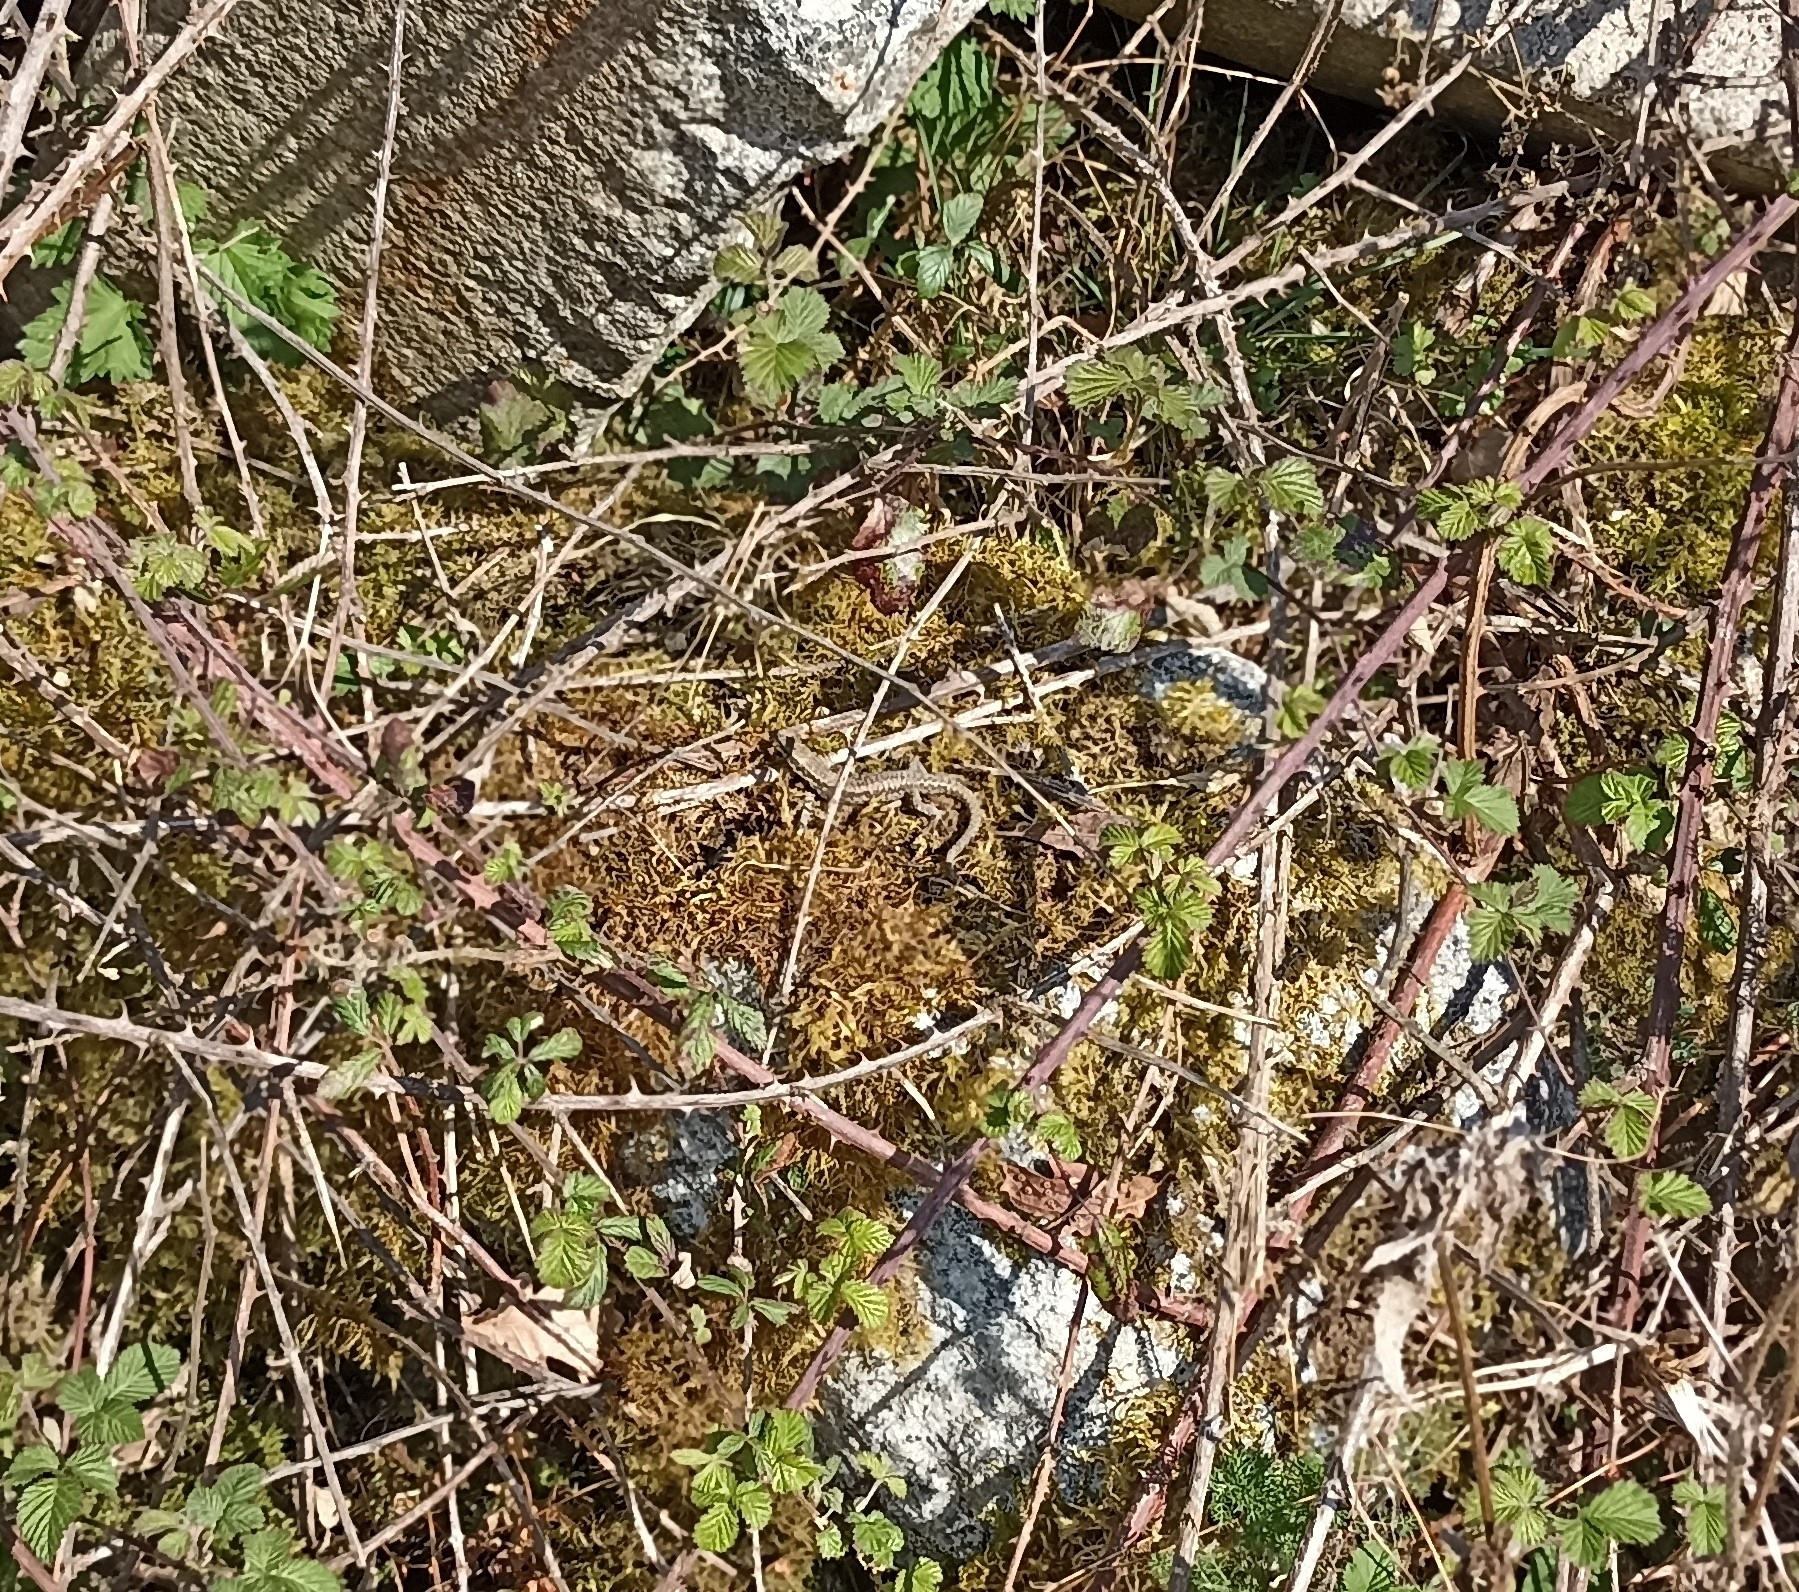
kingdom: Animalia
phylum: Chordata
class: Squamata
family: Lacertidae
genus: Podarcis
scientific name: Podarcis muralis
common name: Common wall lizard
